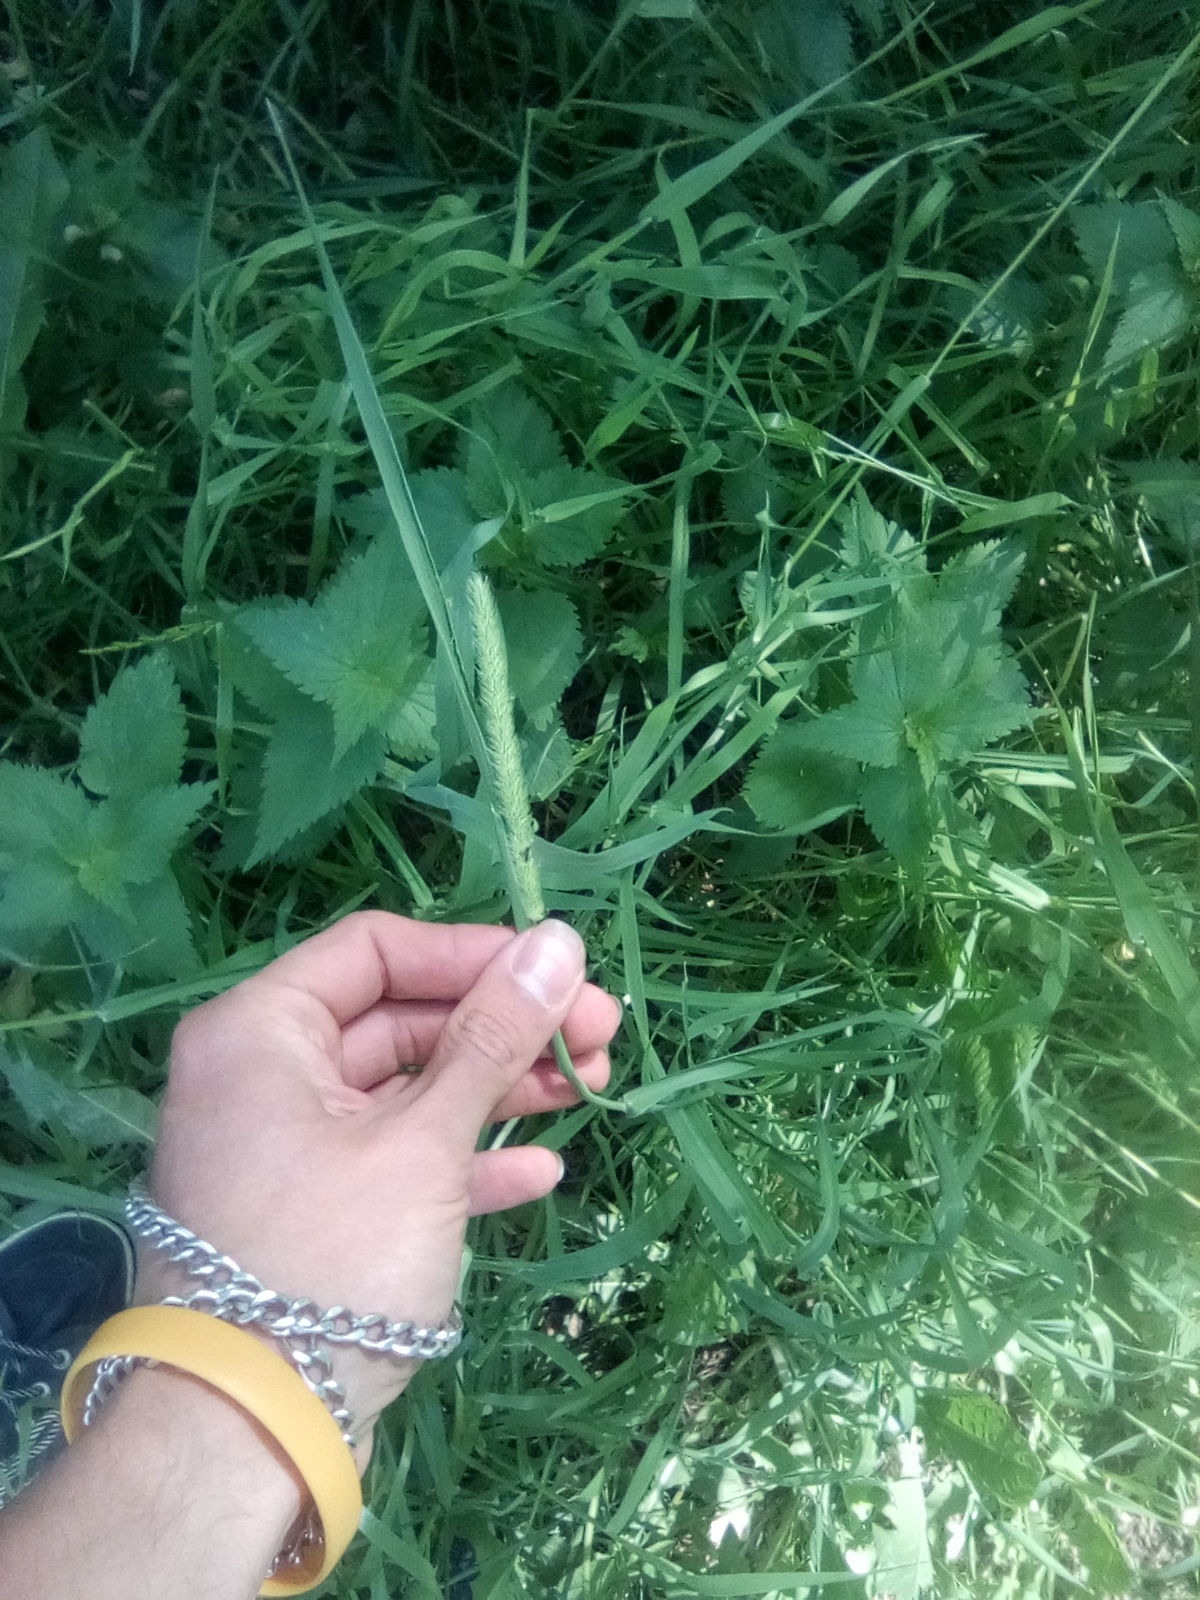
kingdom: Plantae
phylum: Tracheophyta
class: Liliopsida
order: Poales
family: Poaceae
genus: Phleum
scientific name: Phleum pratense
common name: Timothy grass
